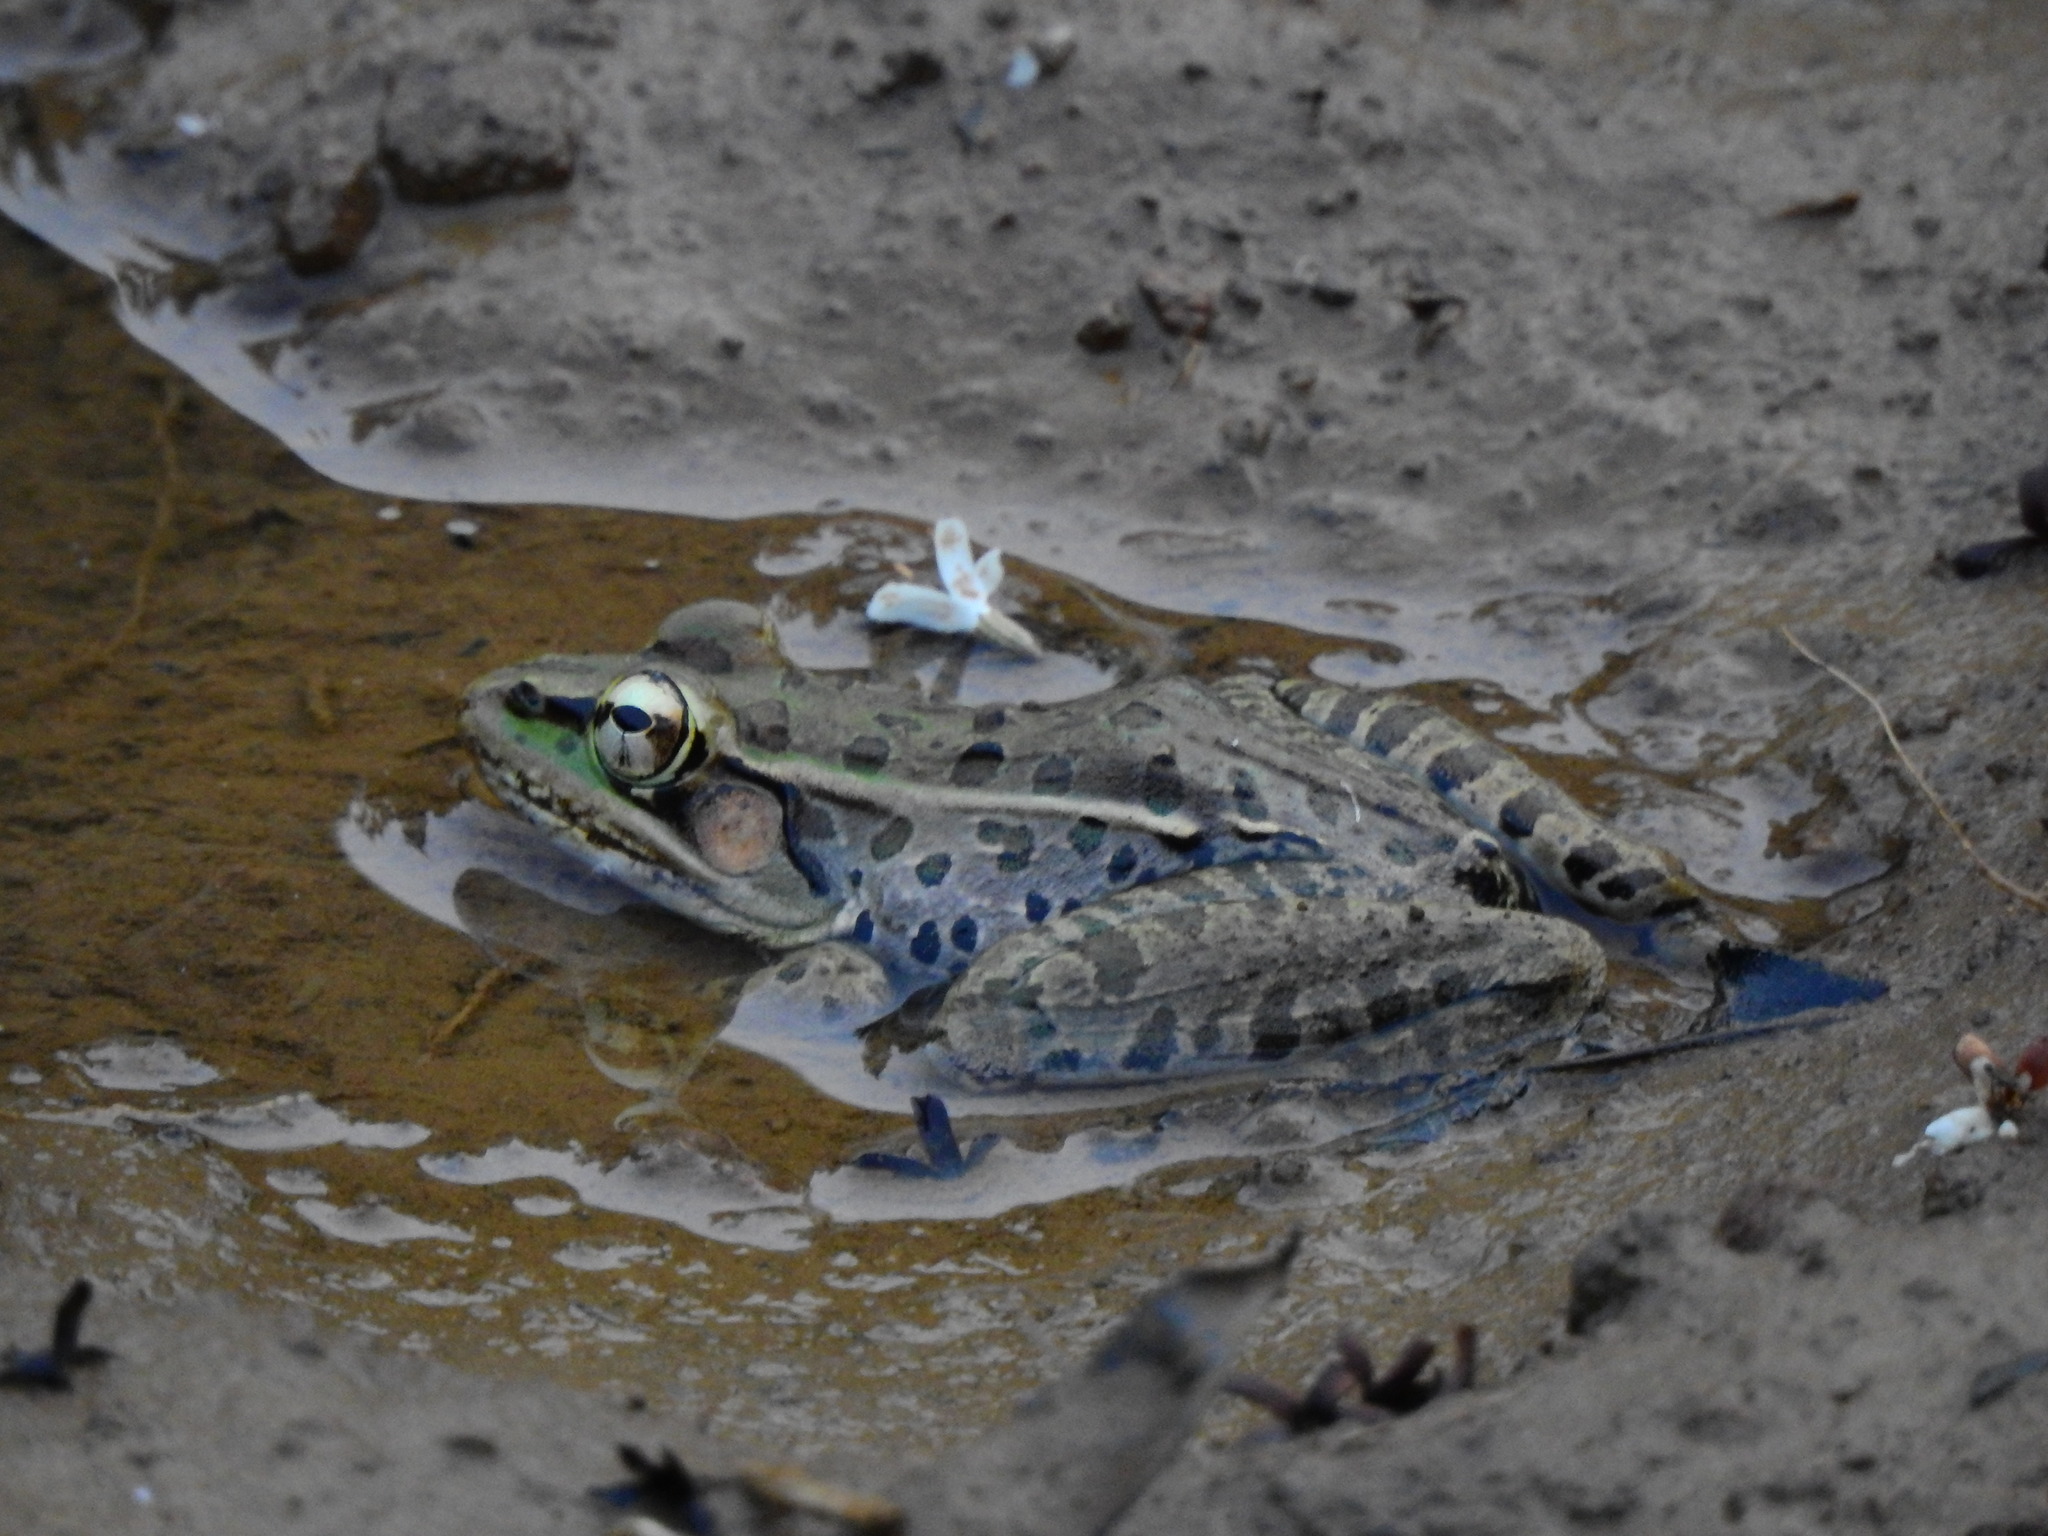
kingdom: Animalia
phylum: Chordata
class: Amphibia
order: Anura
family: Ranidae
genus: Lithobates
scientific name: Lithobates brownorum
